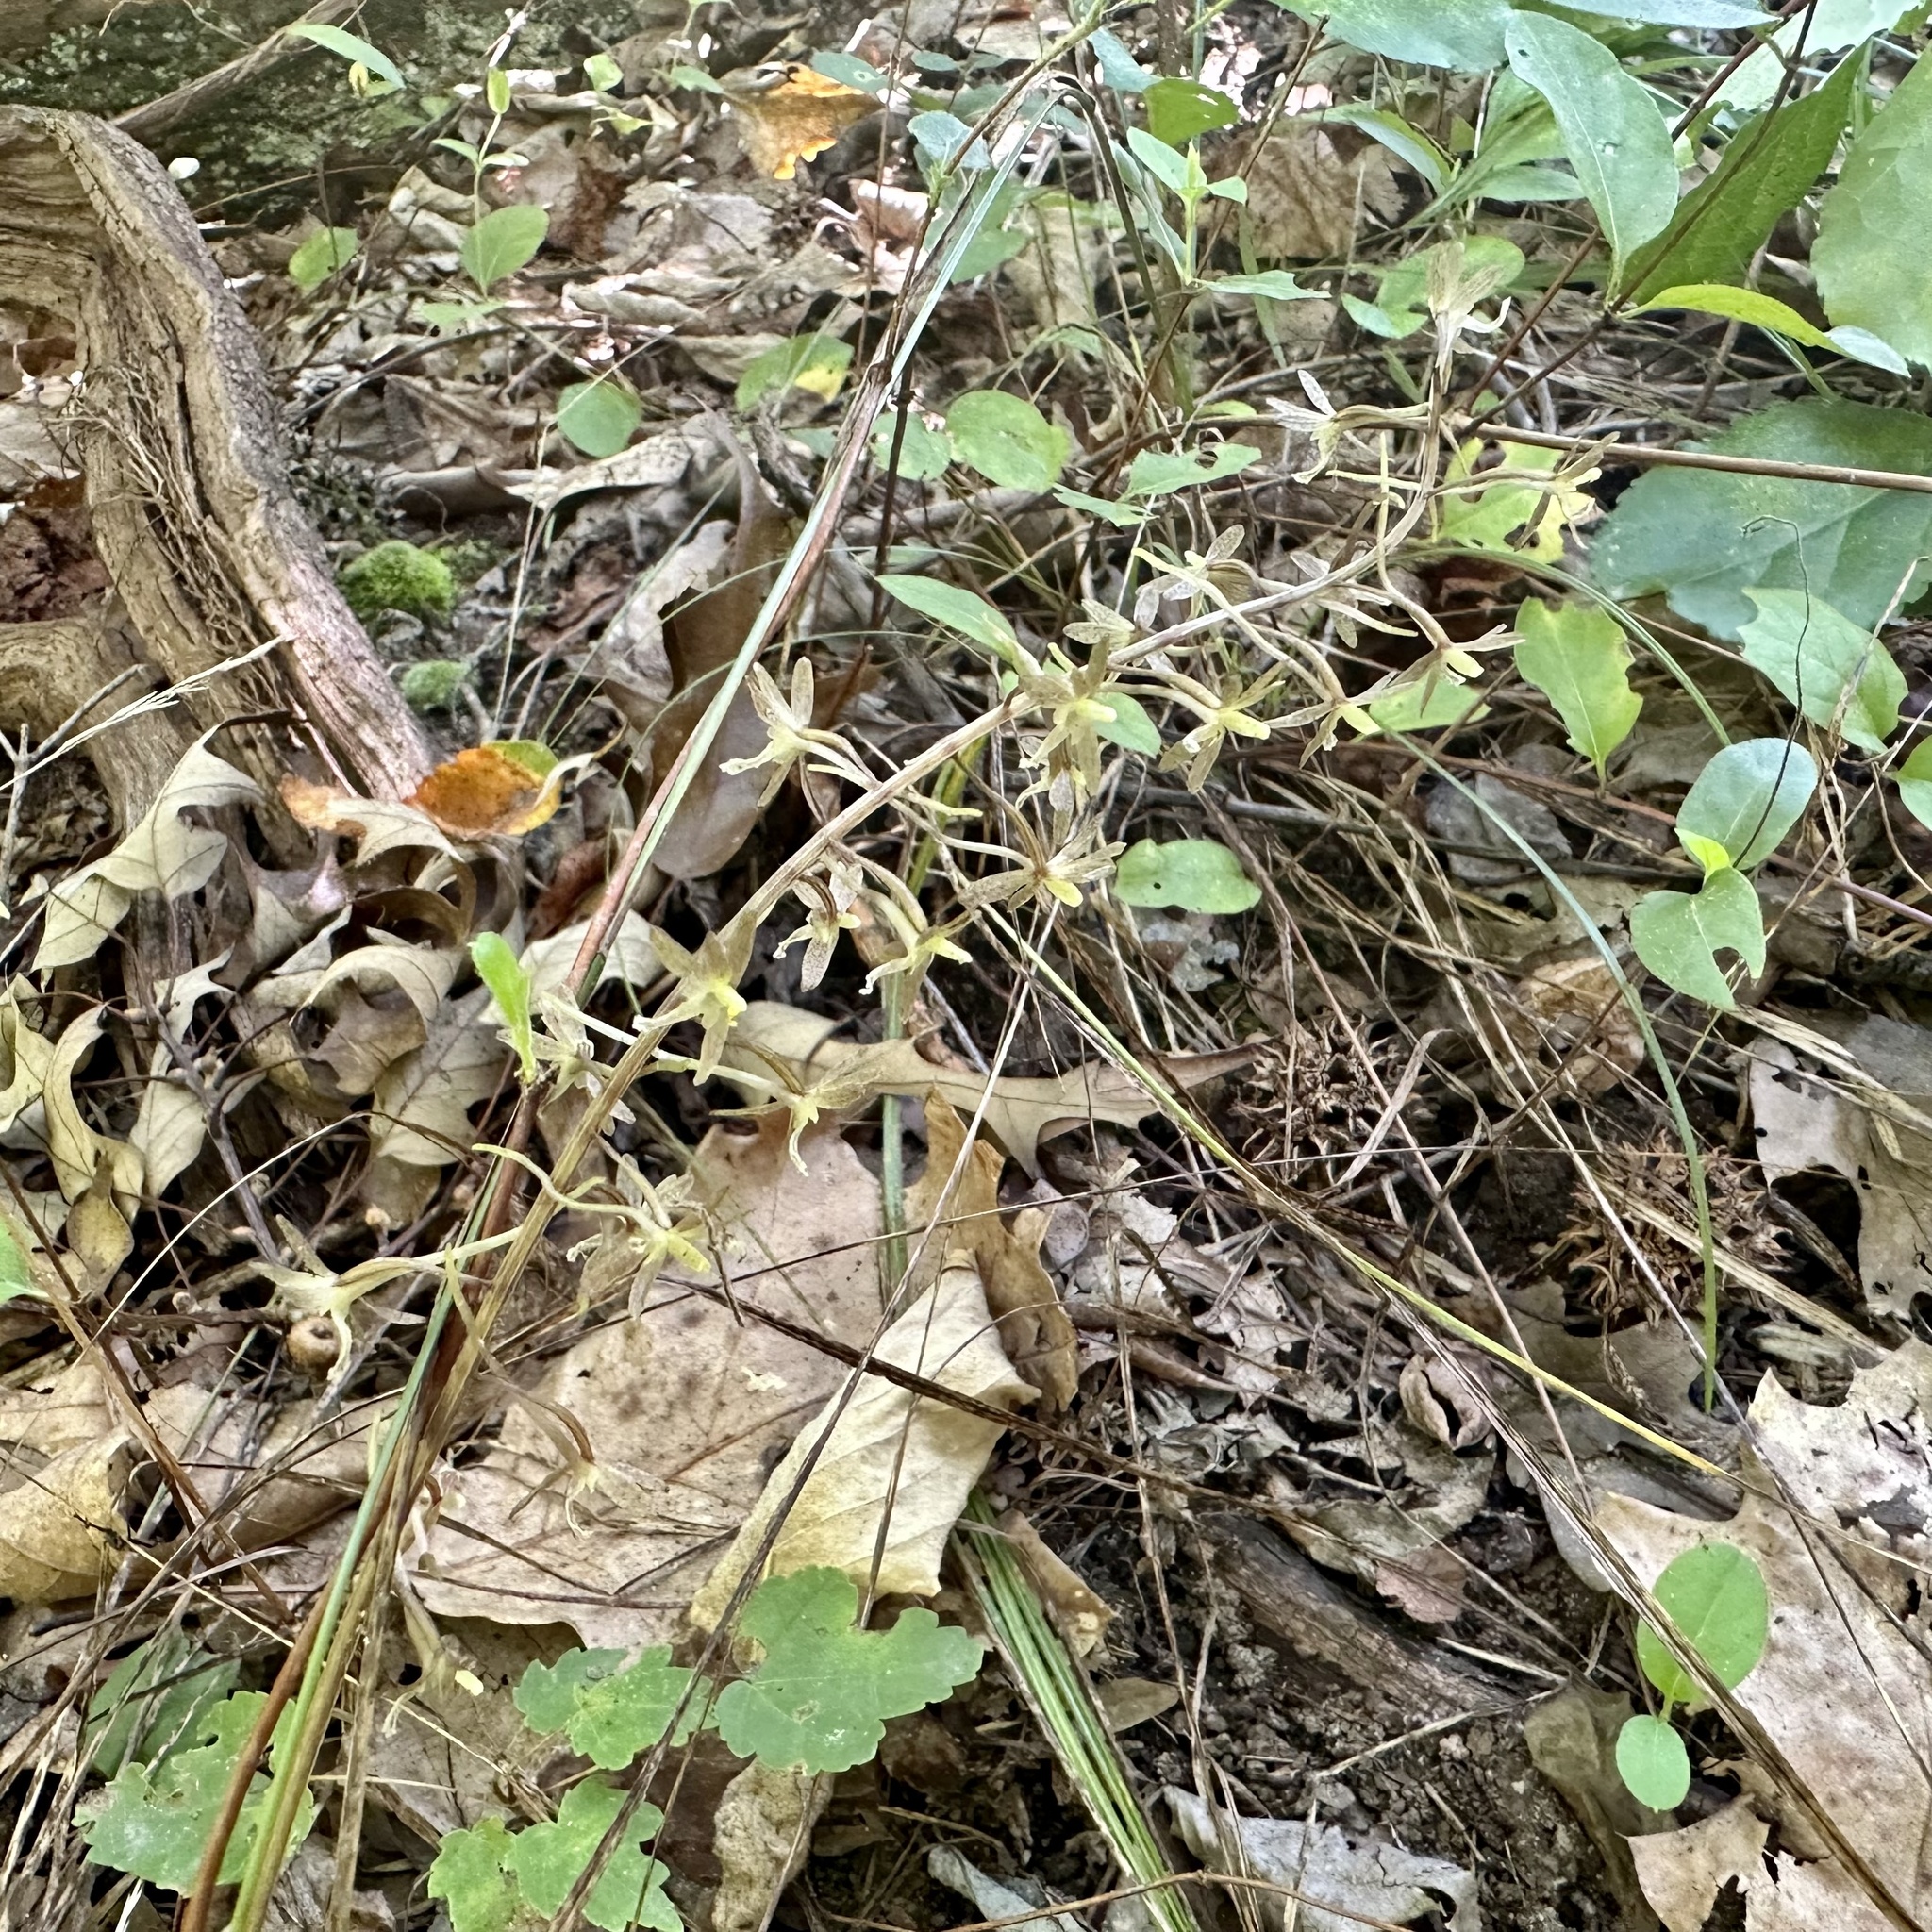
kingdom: Plantae
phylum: Tracheophyta
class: Liliopsida
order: Asparagales
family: Orchidaceae
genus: Tipularia
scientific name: Tipularia discolor
